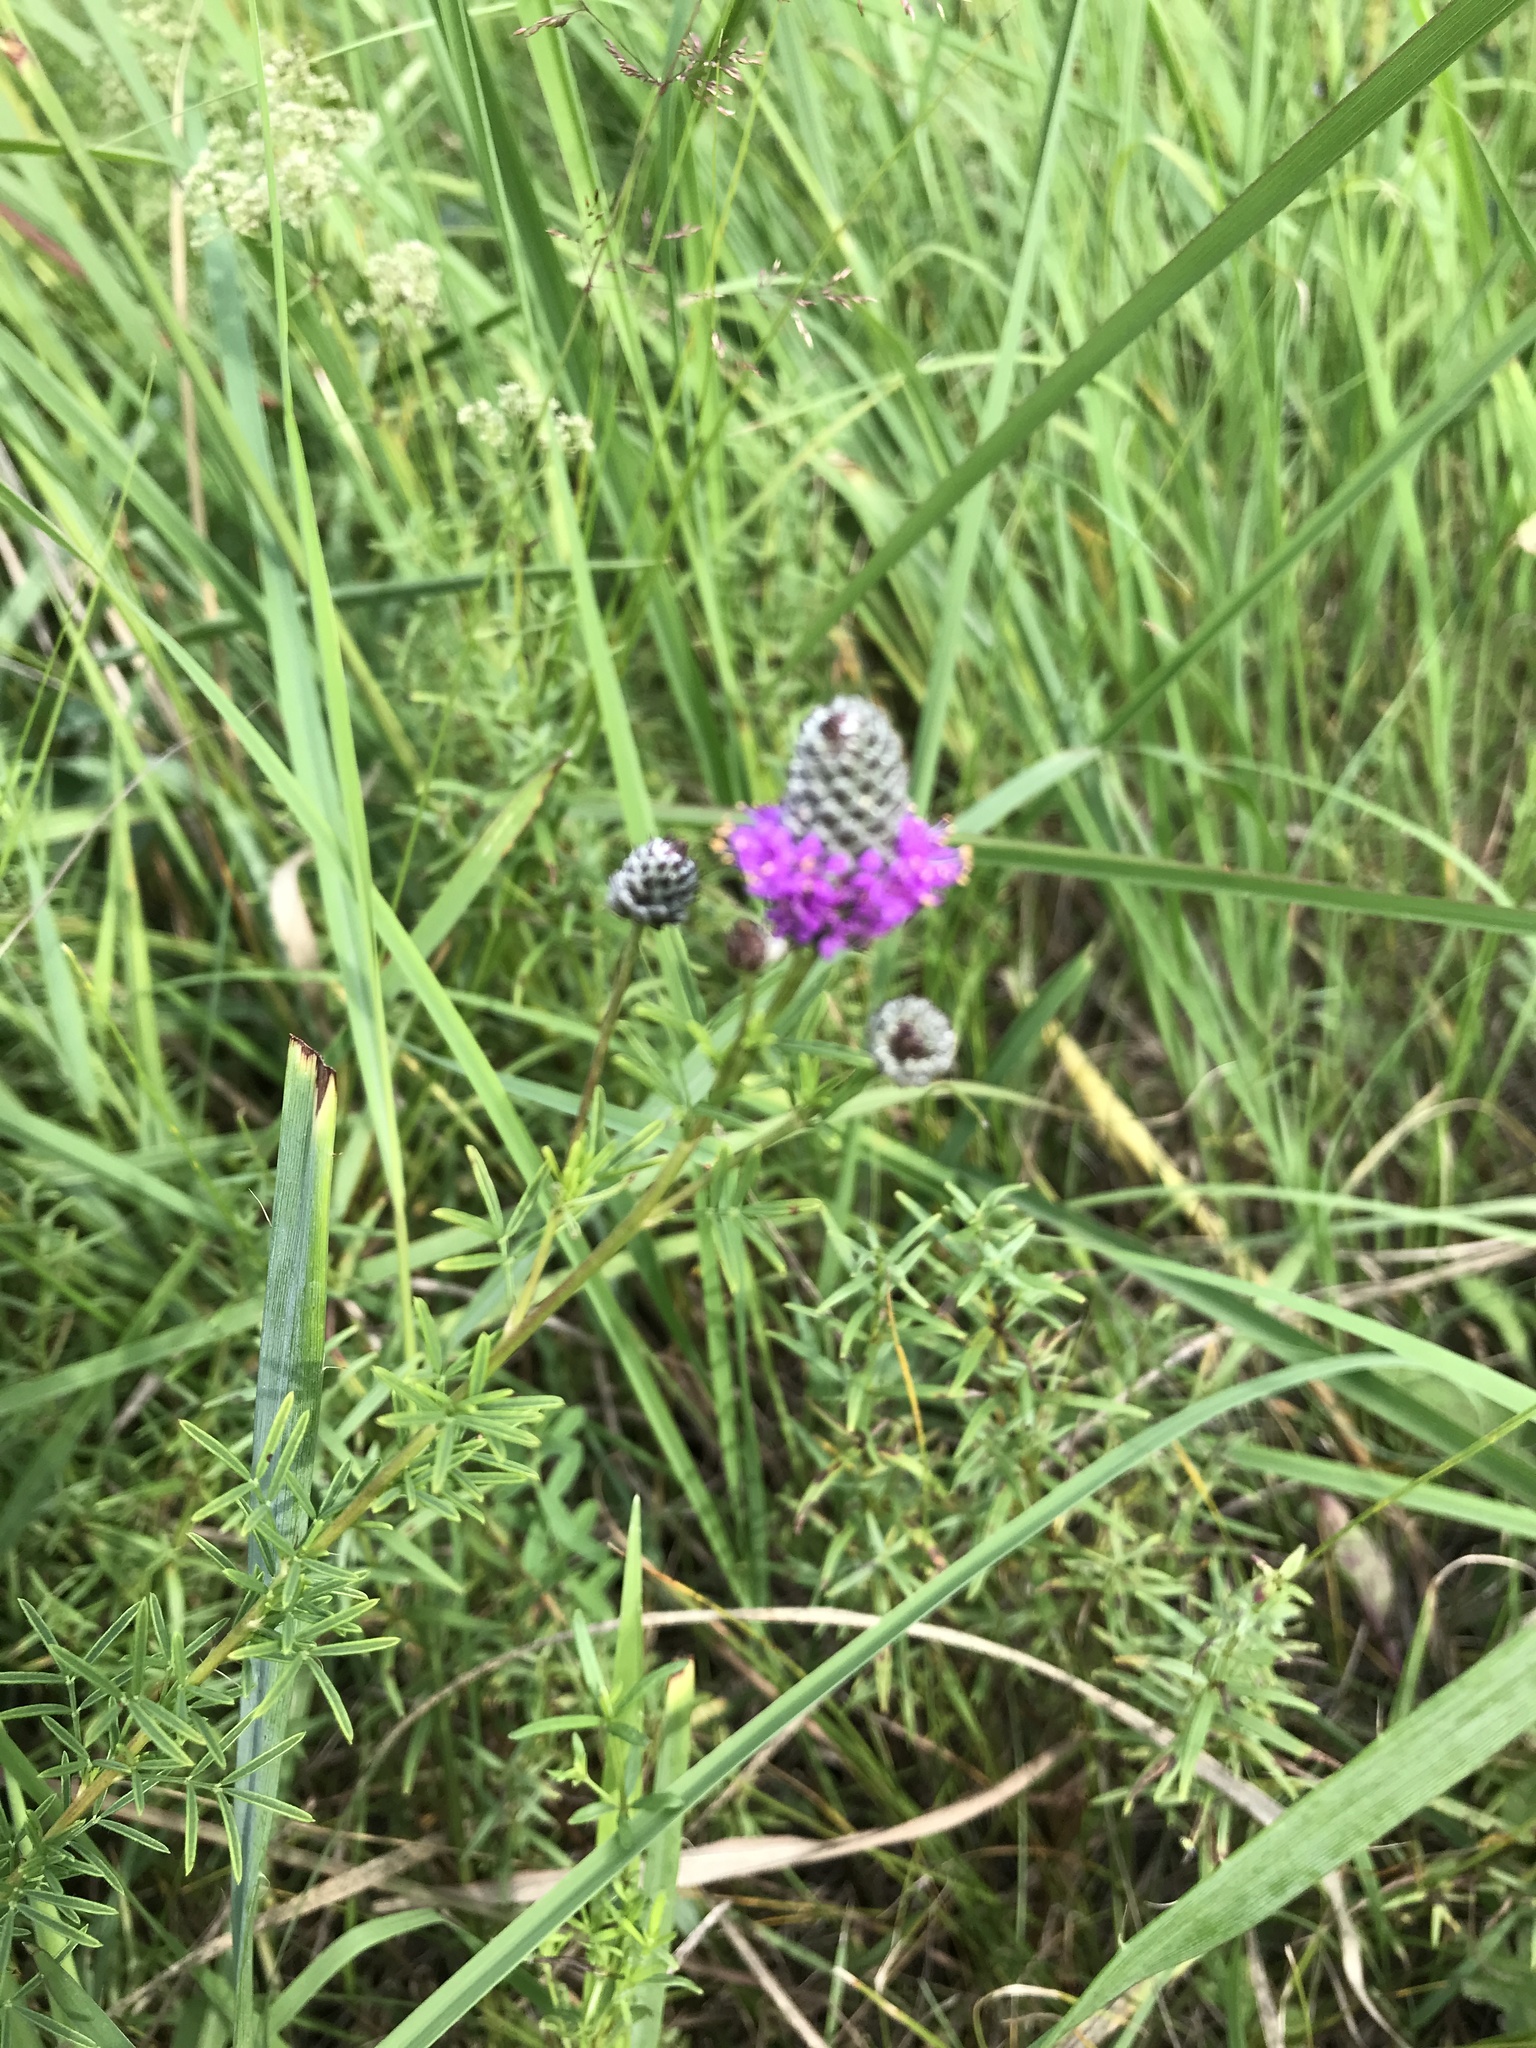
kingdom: Plantae
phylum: Tracheophyta
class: Magnoliopsida
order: Fabales
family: Fabaceae
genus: Dalea
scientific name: Dalea purpurea
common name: Purple prairie-clover
